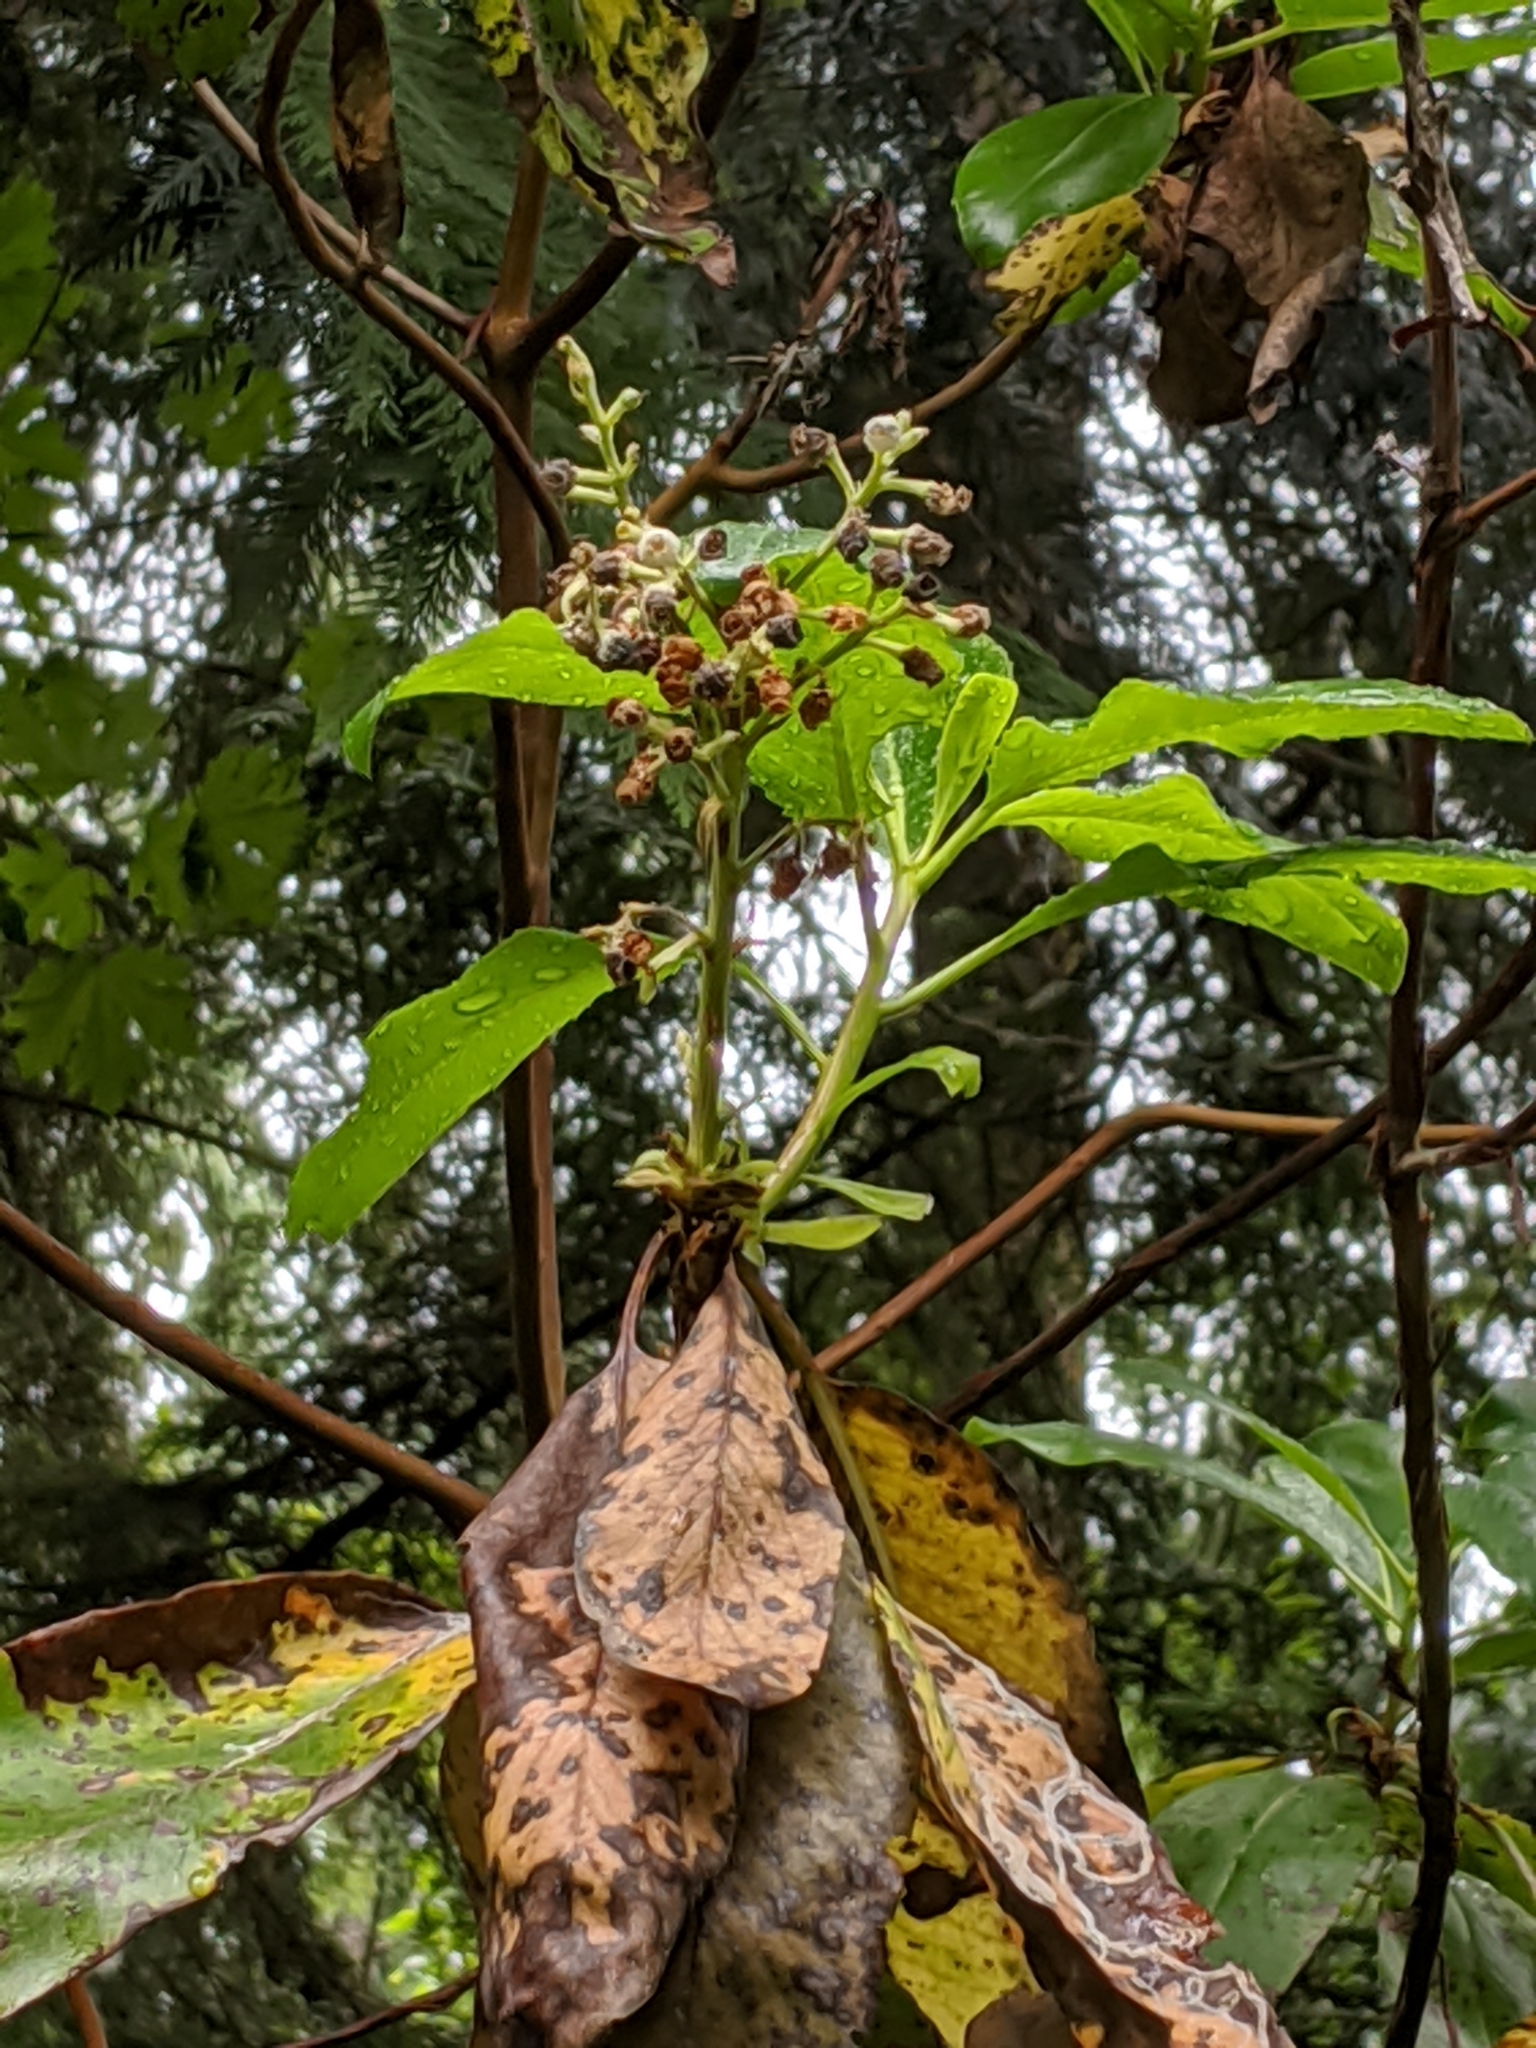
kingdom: Plantae
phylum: Tracheophyta
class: Magnoliopsida
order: Ericales
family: Ericaceae
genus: Arbutus
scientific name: Arbutus menziesii
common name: Pacific madrone
